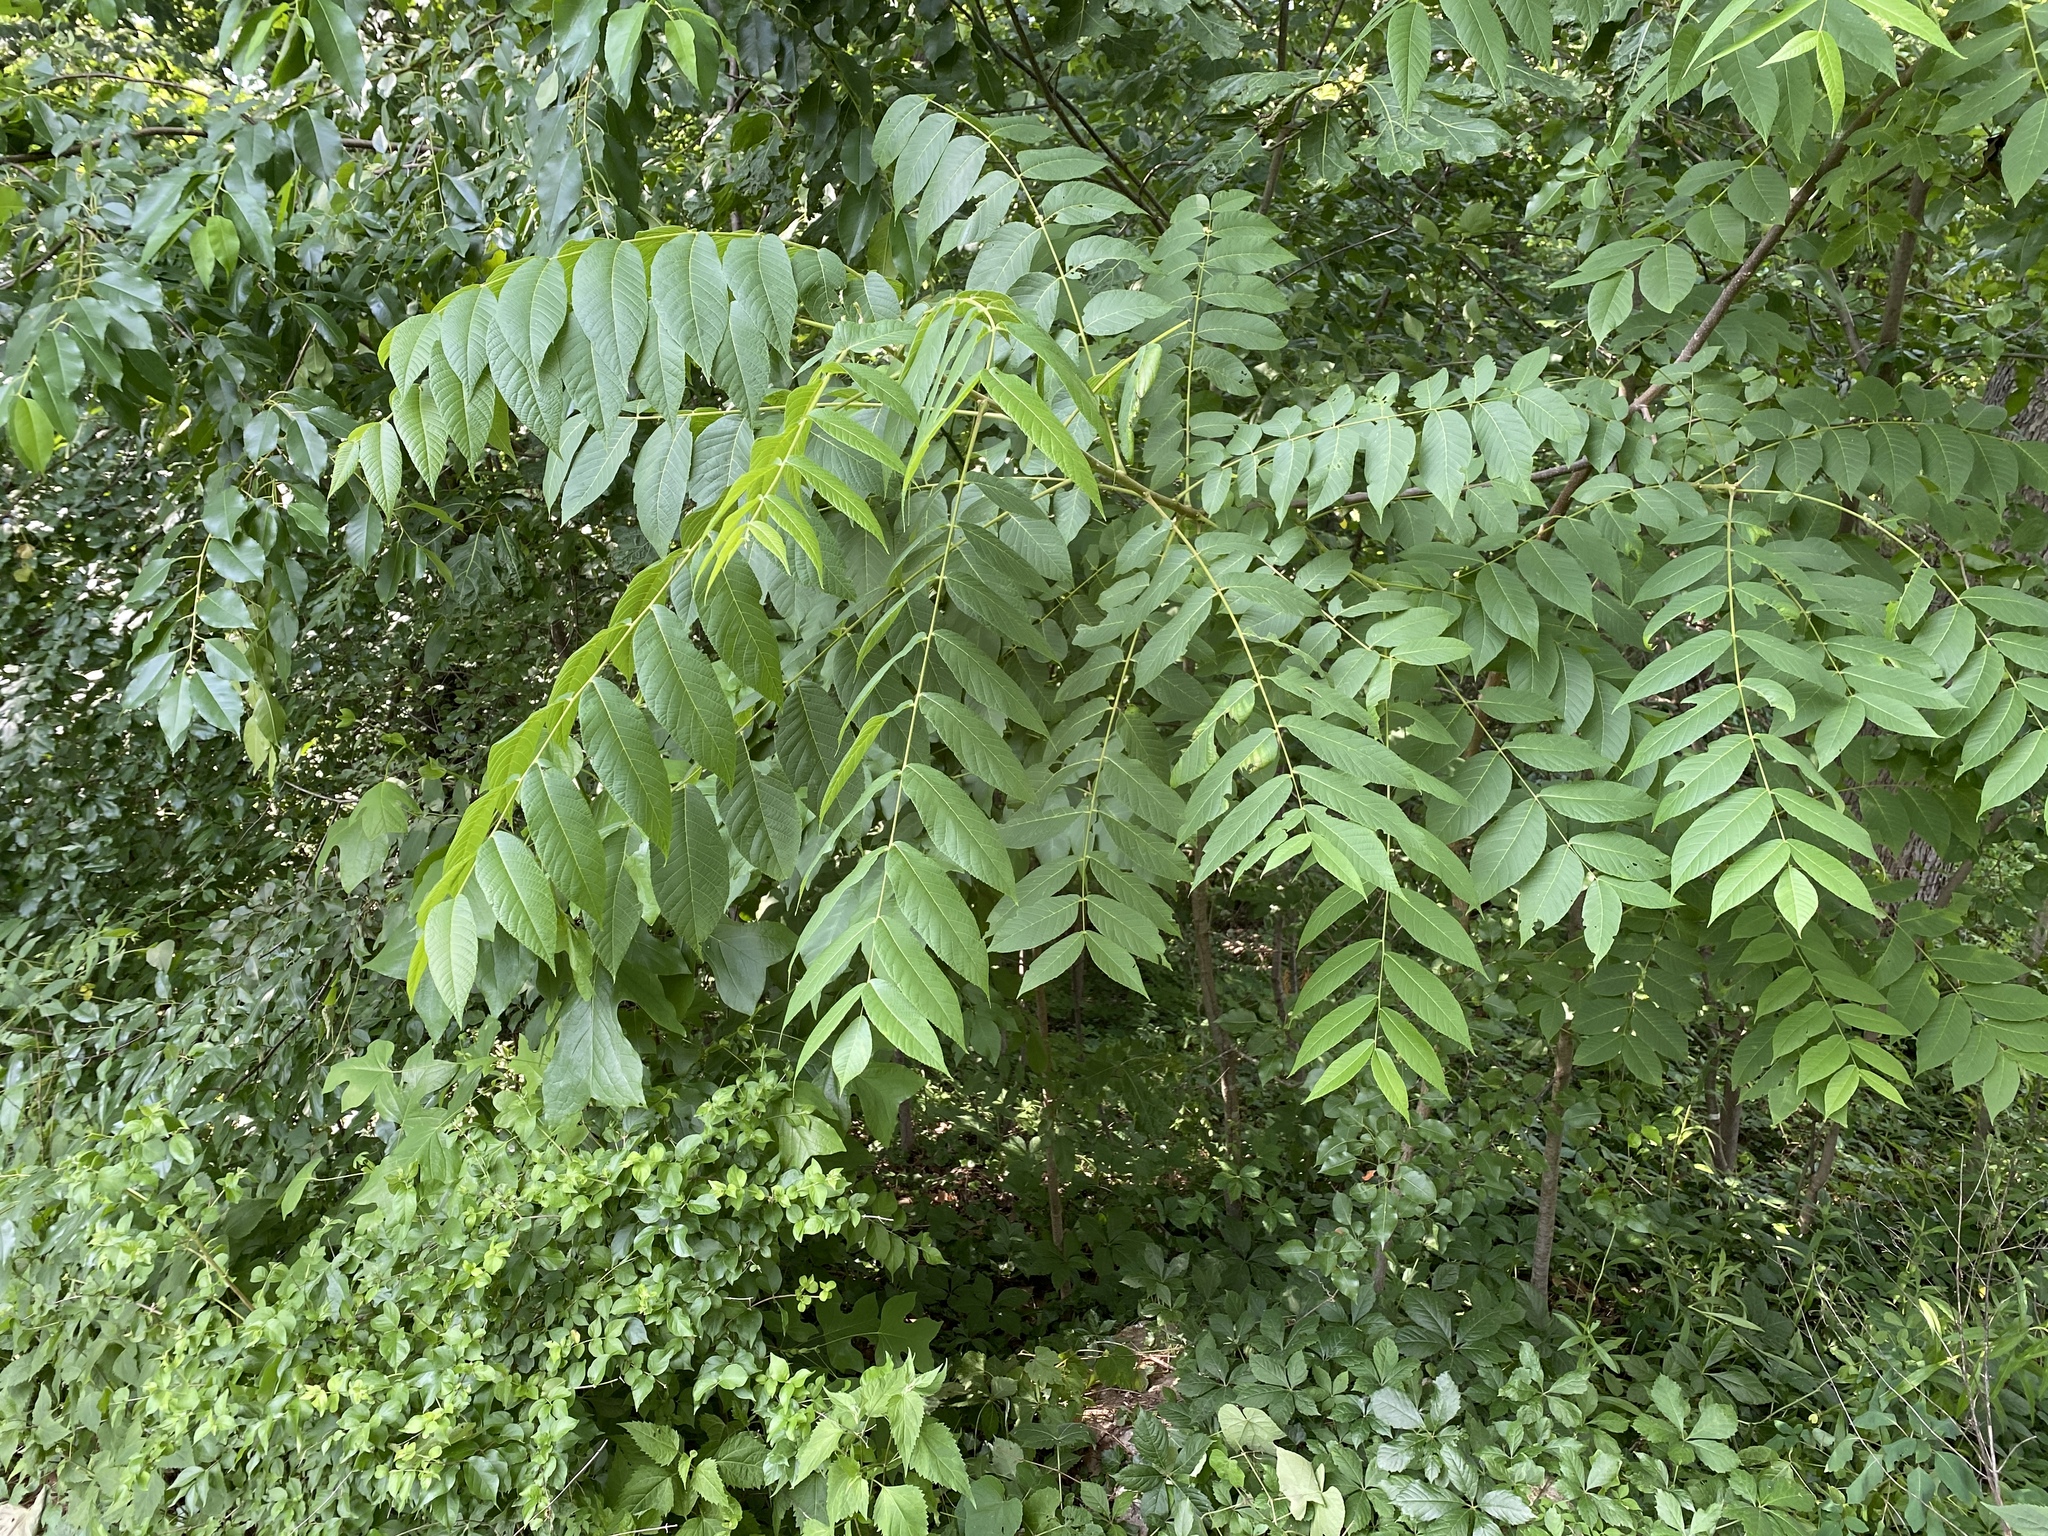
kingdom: Plantae
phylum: Tracheophyta
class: Magnoliopsida
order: Fagales
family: Juglandaceae
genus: Juglans
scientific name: Juglans nigra
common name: Black walnut
